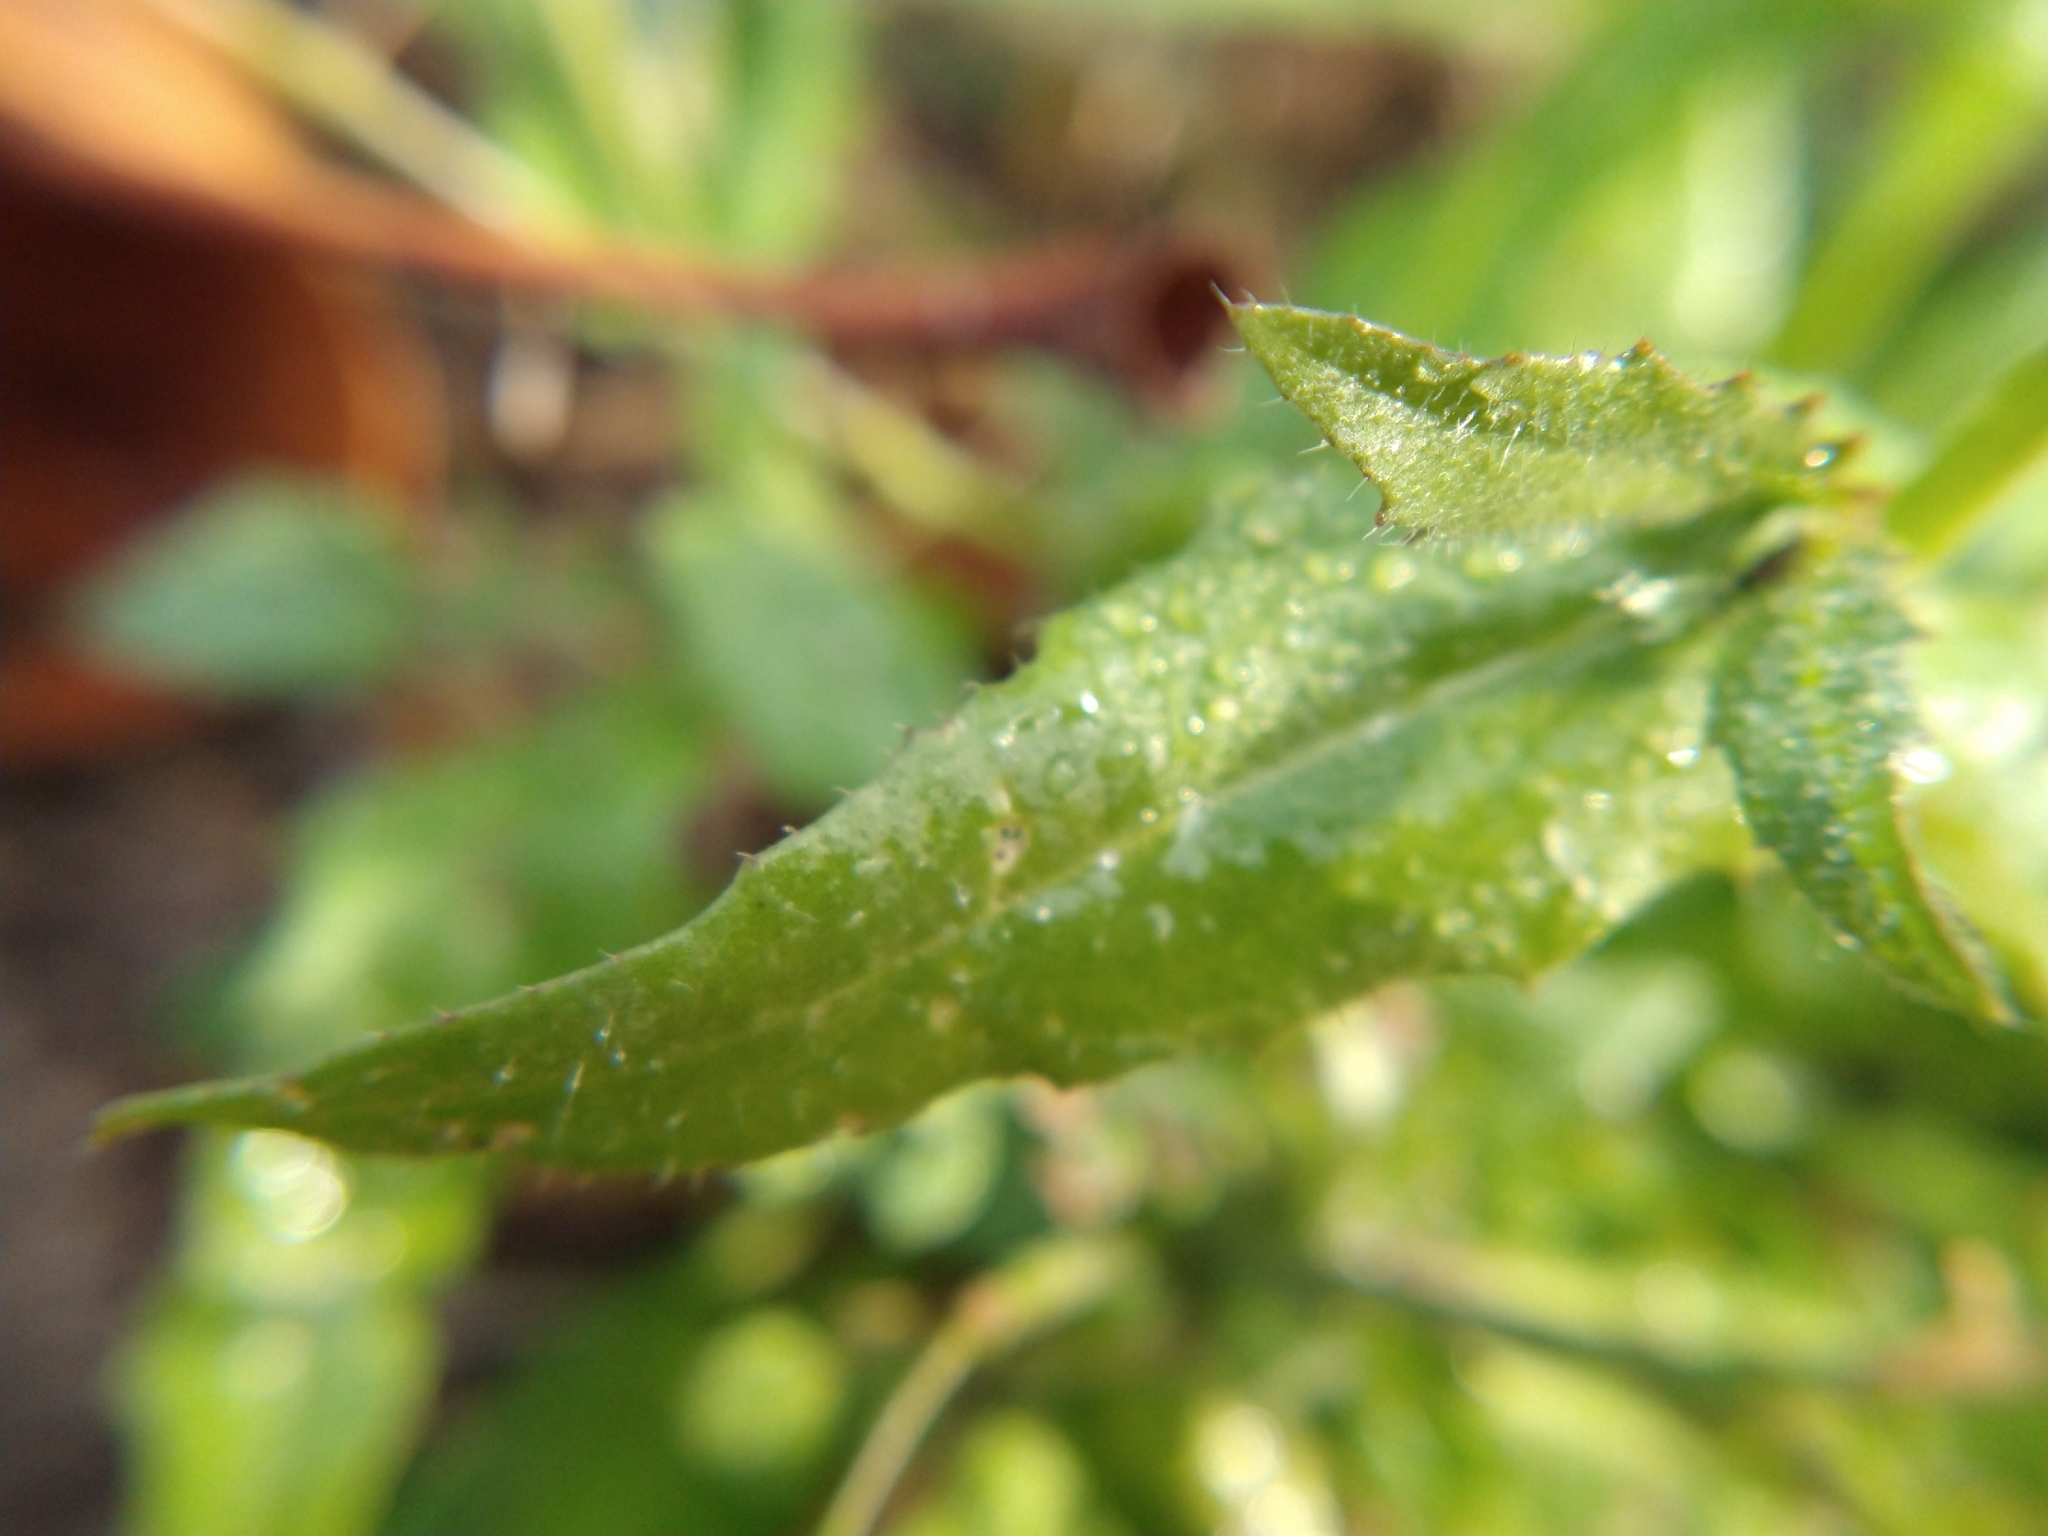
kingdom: Plantae
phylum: Tracheophyta
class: Magnoliopsida
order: Brassicales
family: Brassicaceae
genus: Capsella
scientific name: Capsella bursa-pastoris
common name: Shepherd's purse
